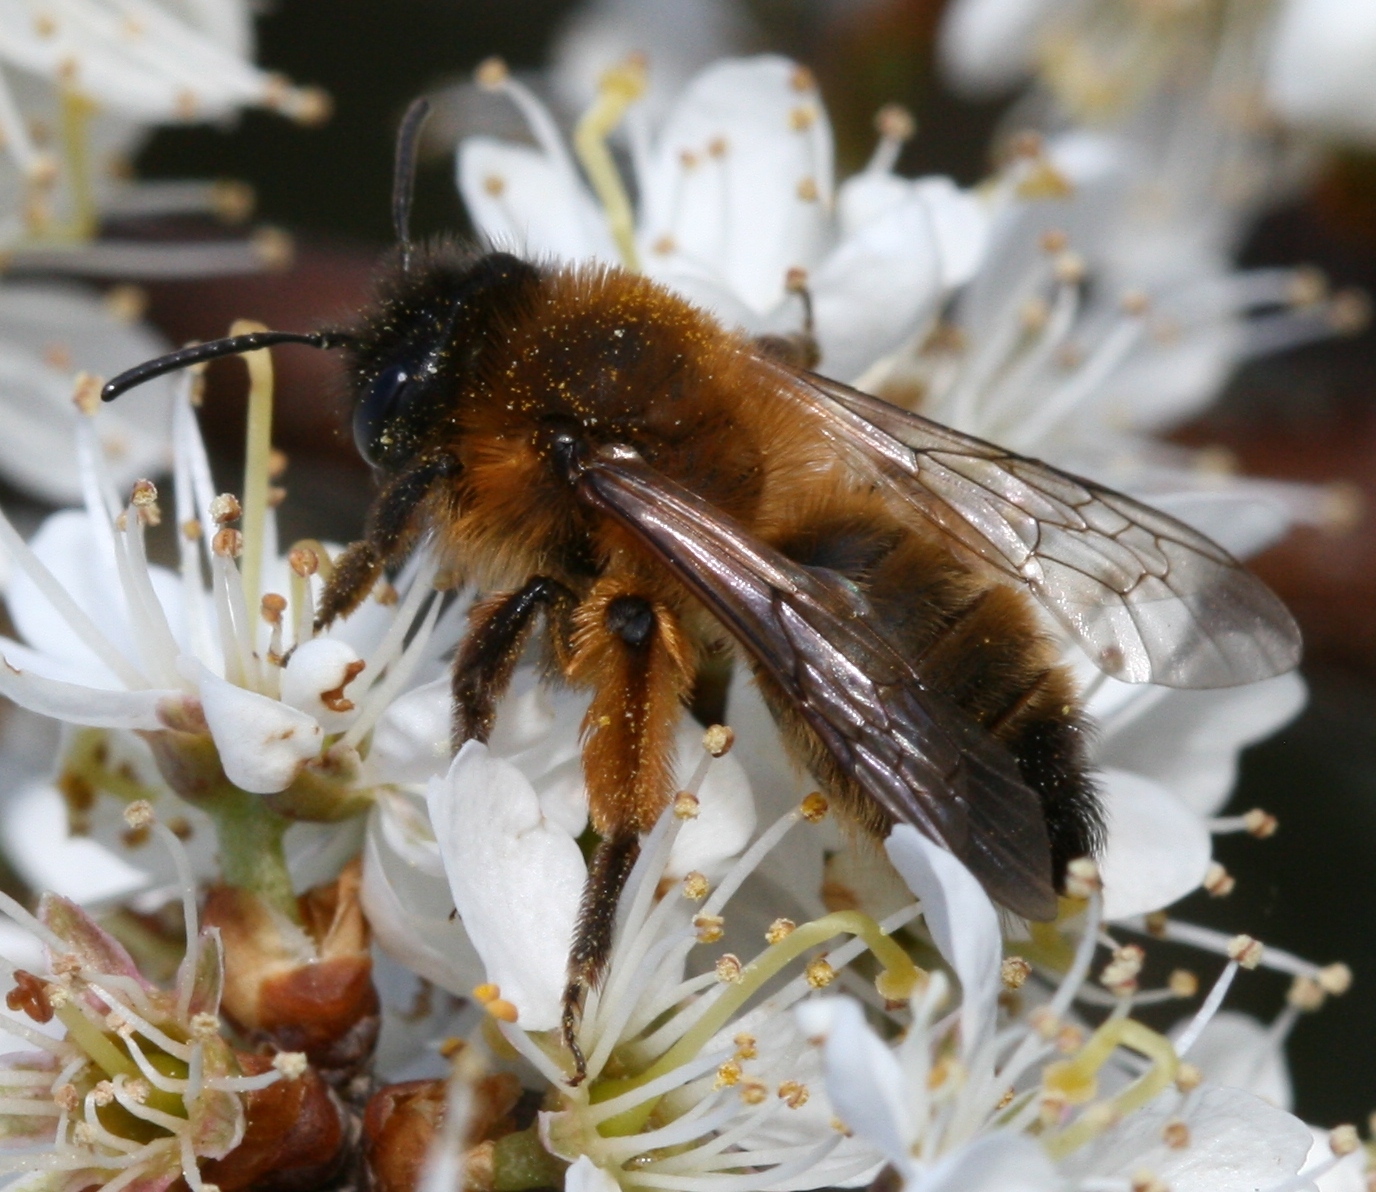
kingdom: Animalia
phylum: Arthropoda
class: Insecta
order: Hymenoptera
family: Andrenidae
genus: Andrena
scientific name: Andrena nigroaenea
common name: Buffish mining bee
